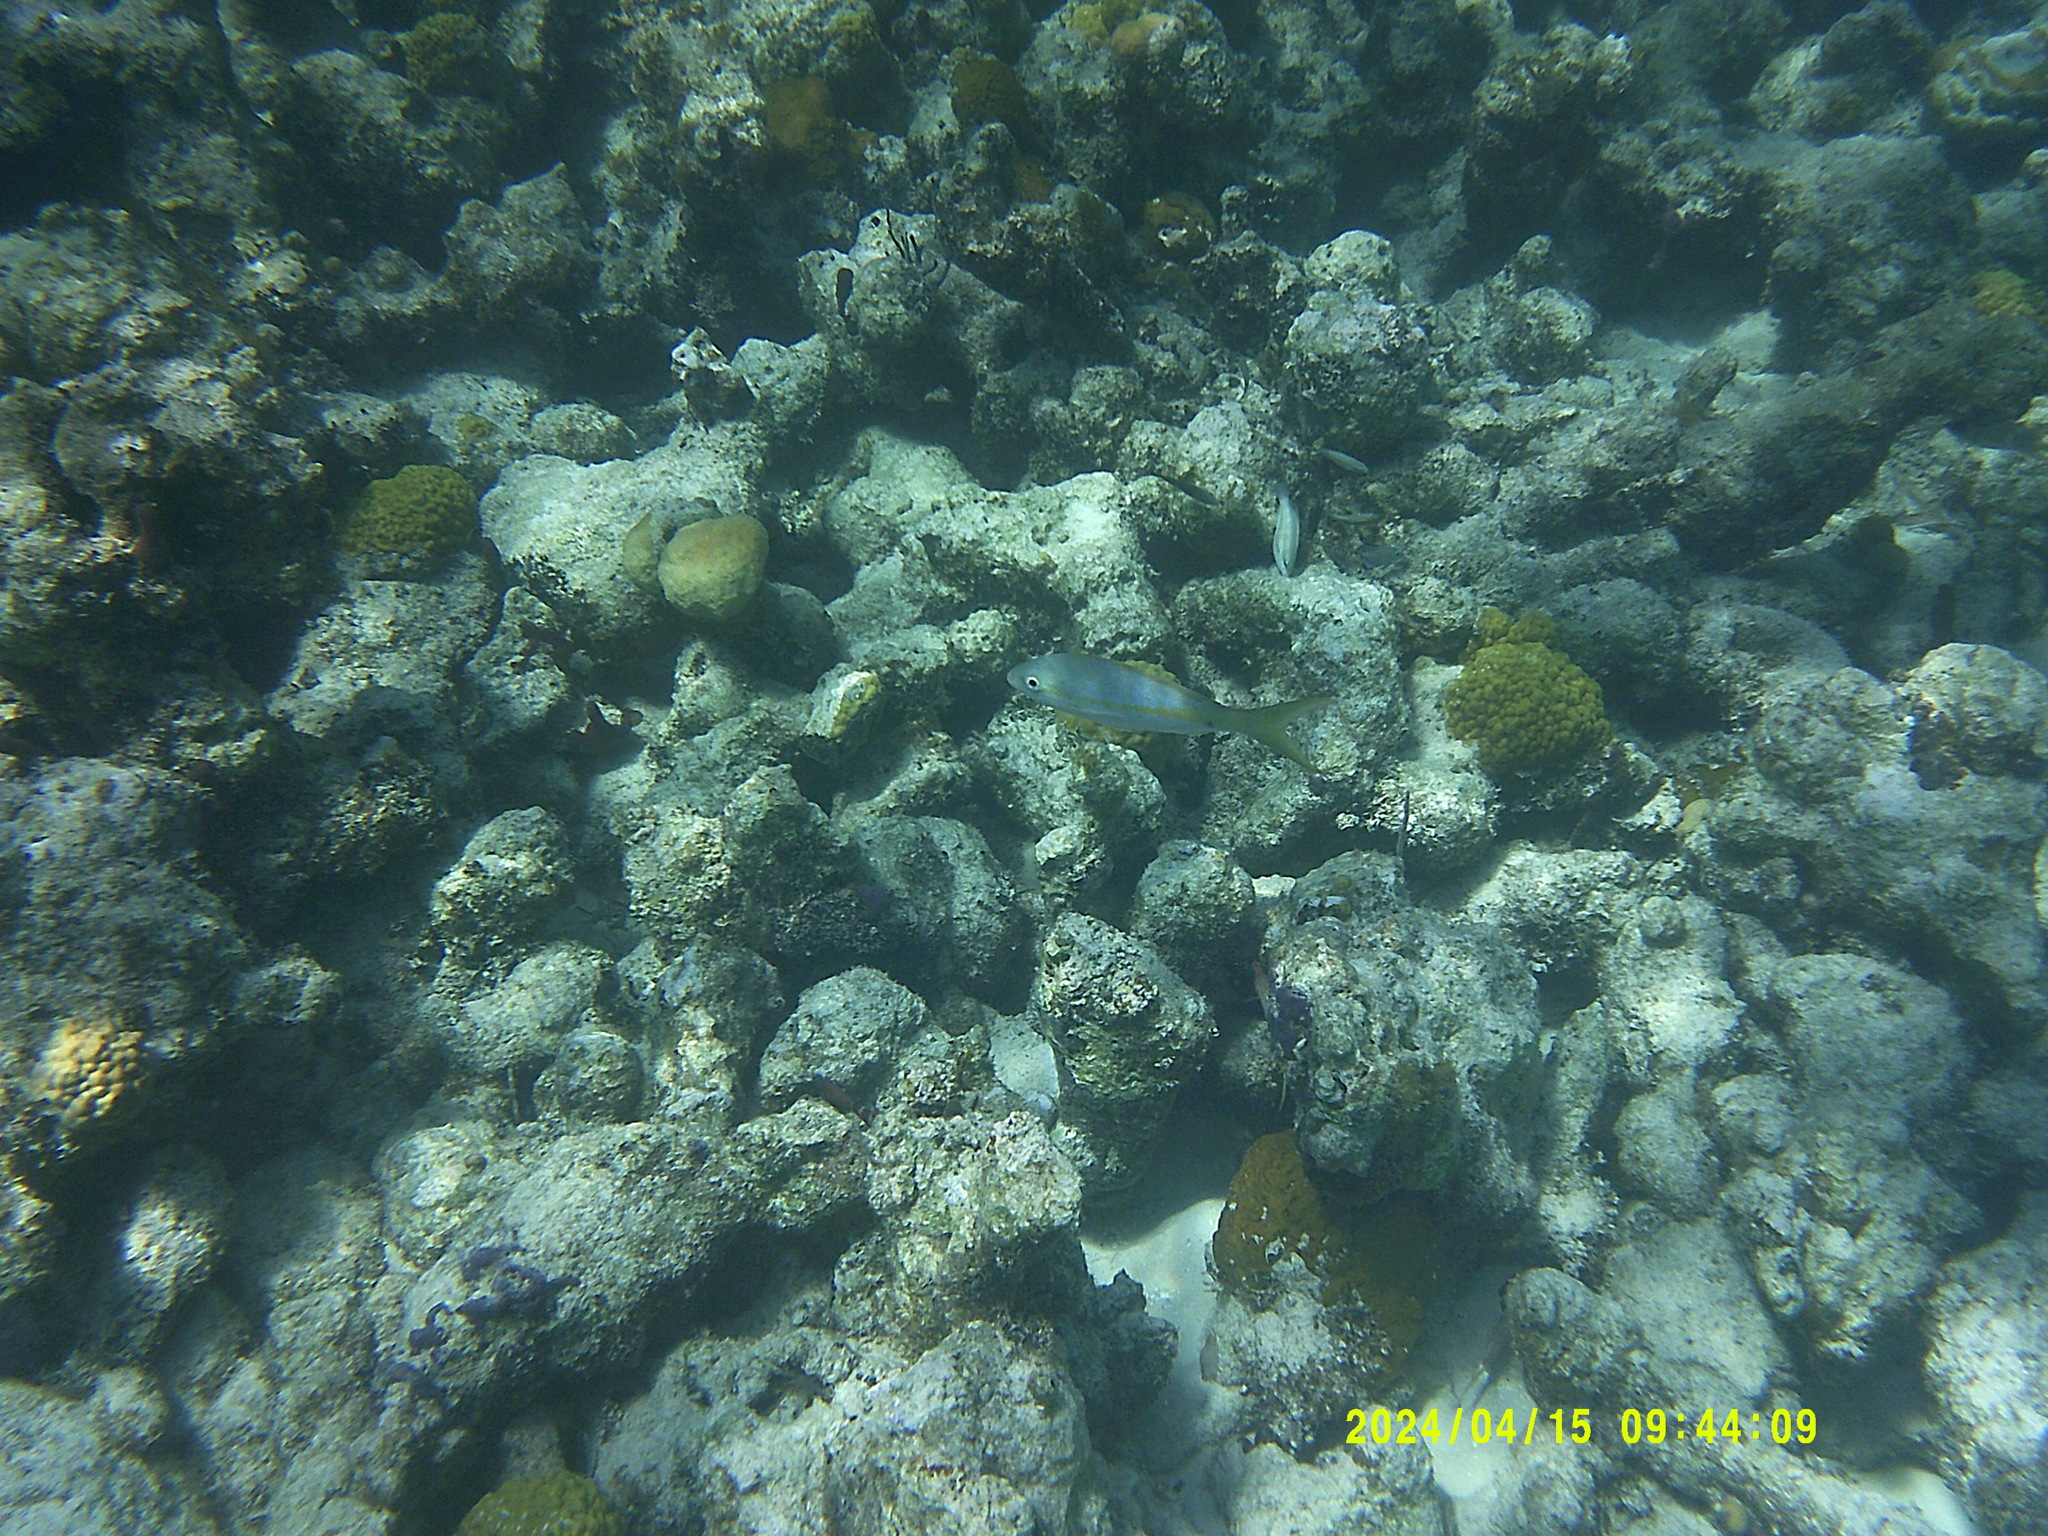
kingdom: Animalia
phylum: Chordata
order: Perciformes
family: Lutjanidae
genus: Ocyurus
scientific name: Ocyurus chrysurus
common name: Yellowtail snapper
